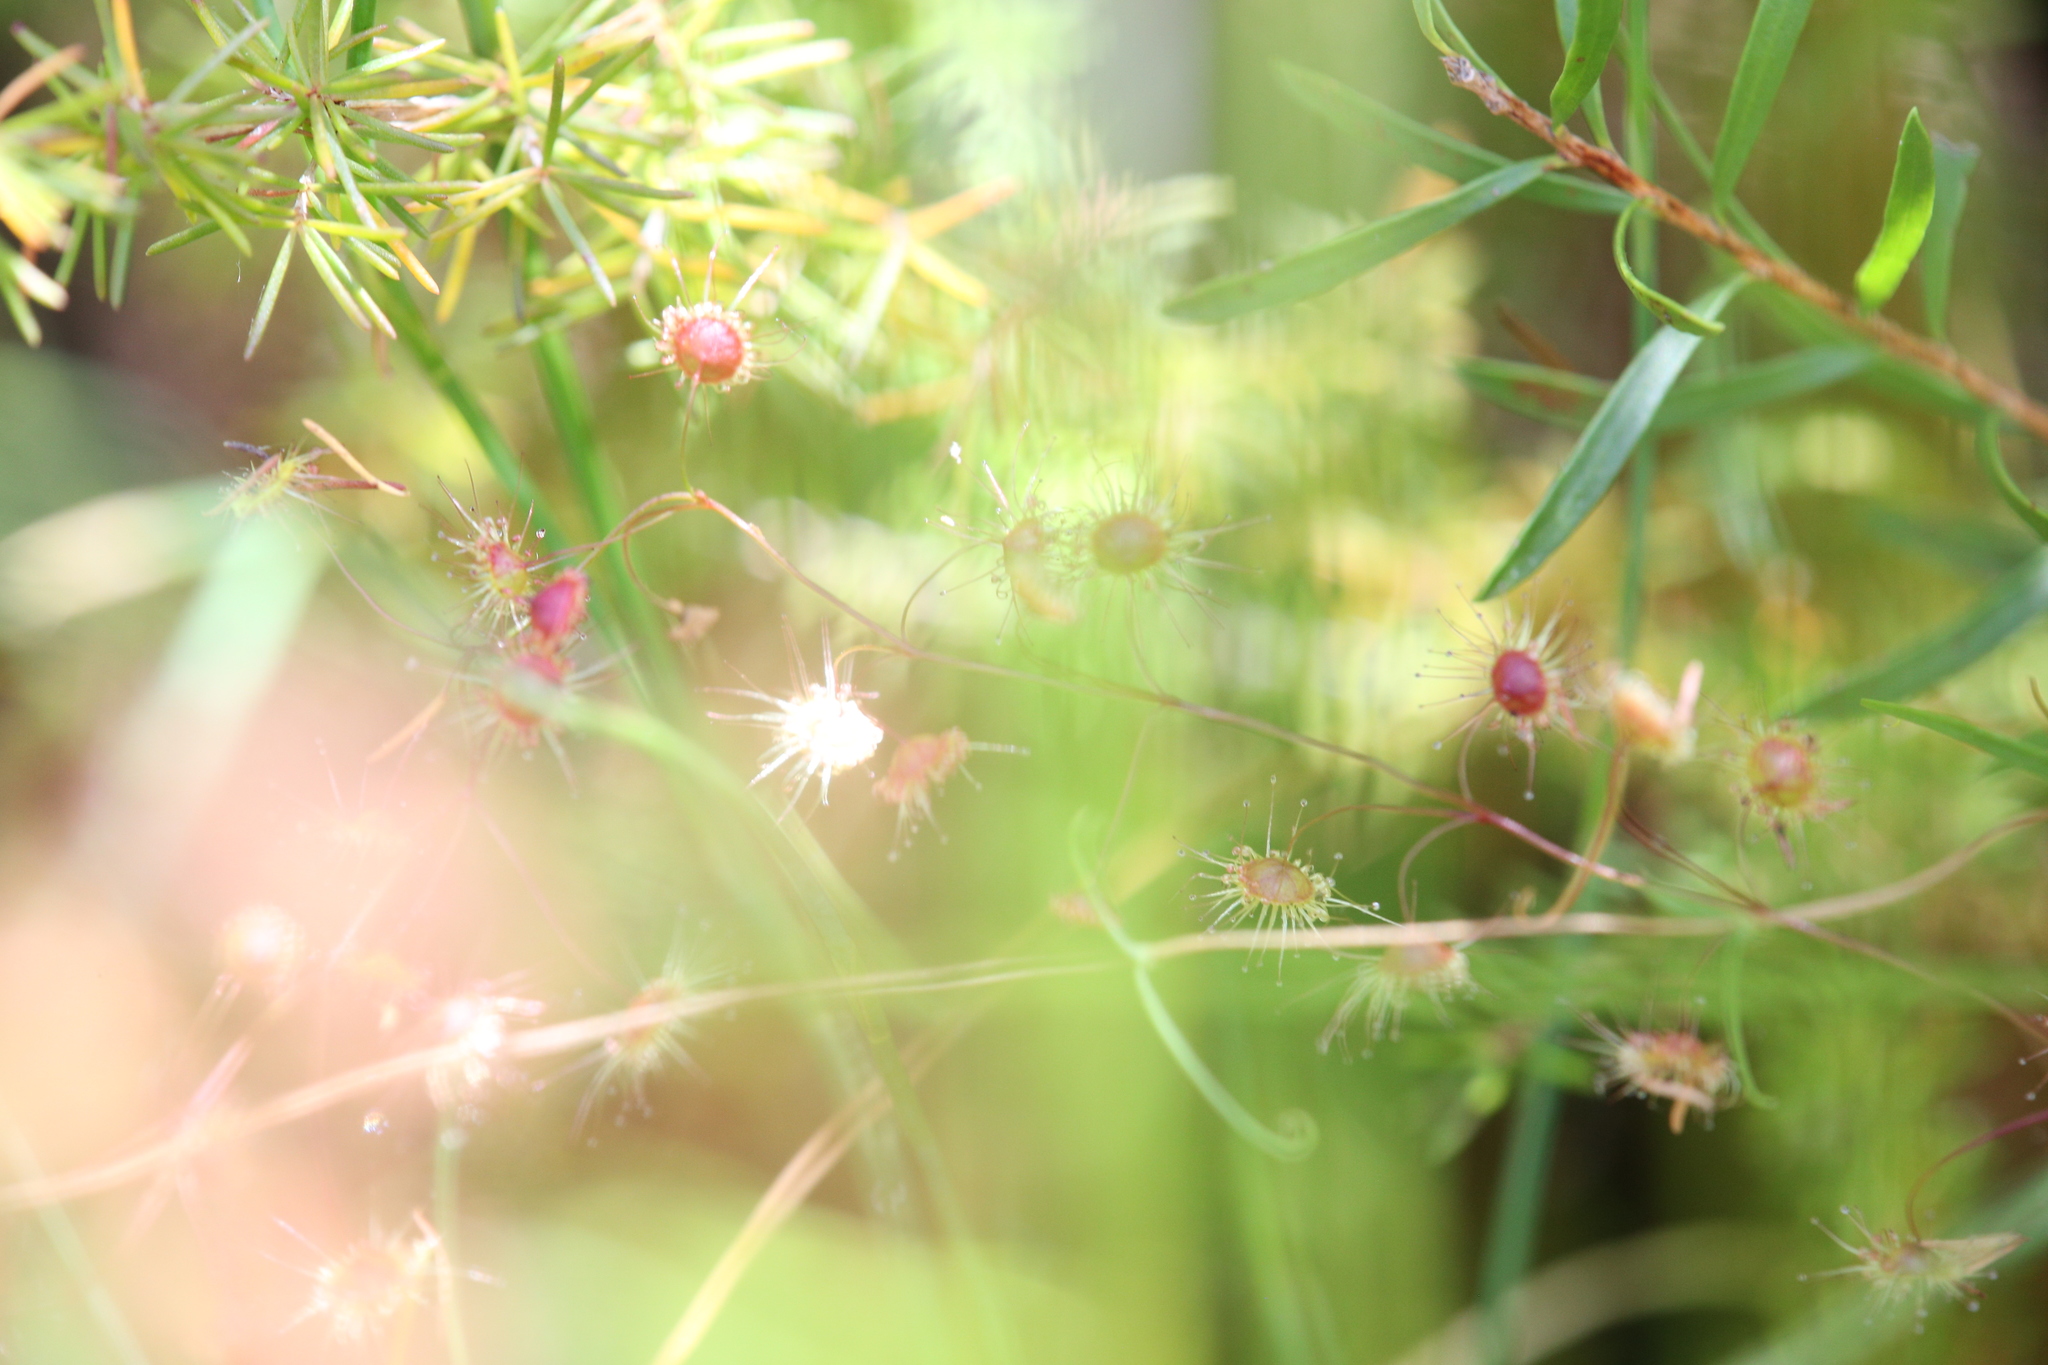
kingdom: Plantae
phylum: Tracheophyta
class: Magnoliopsida
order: Caryophyllales
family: Droseraceae
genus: Drosera
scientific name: Drosera
